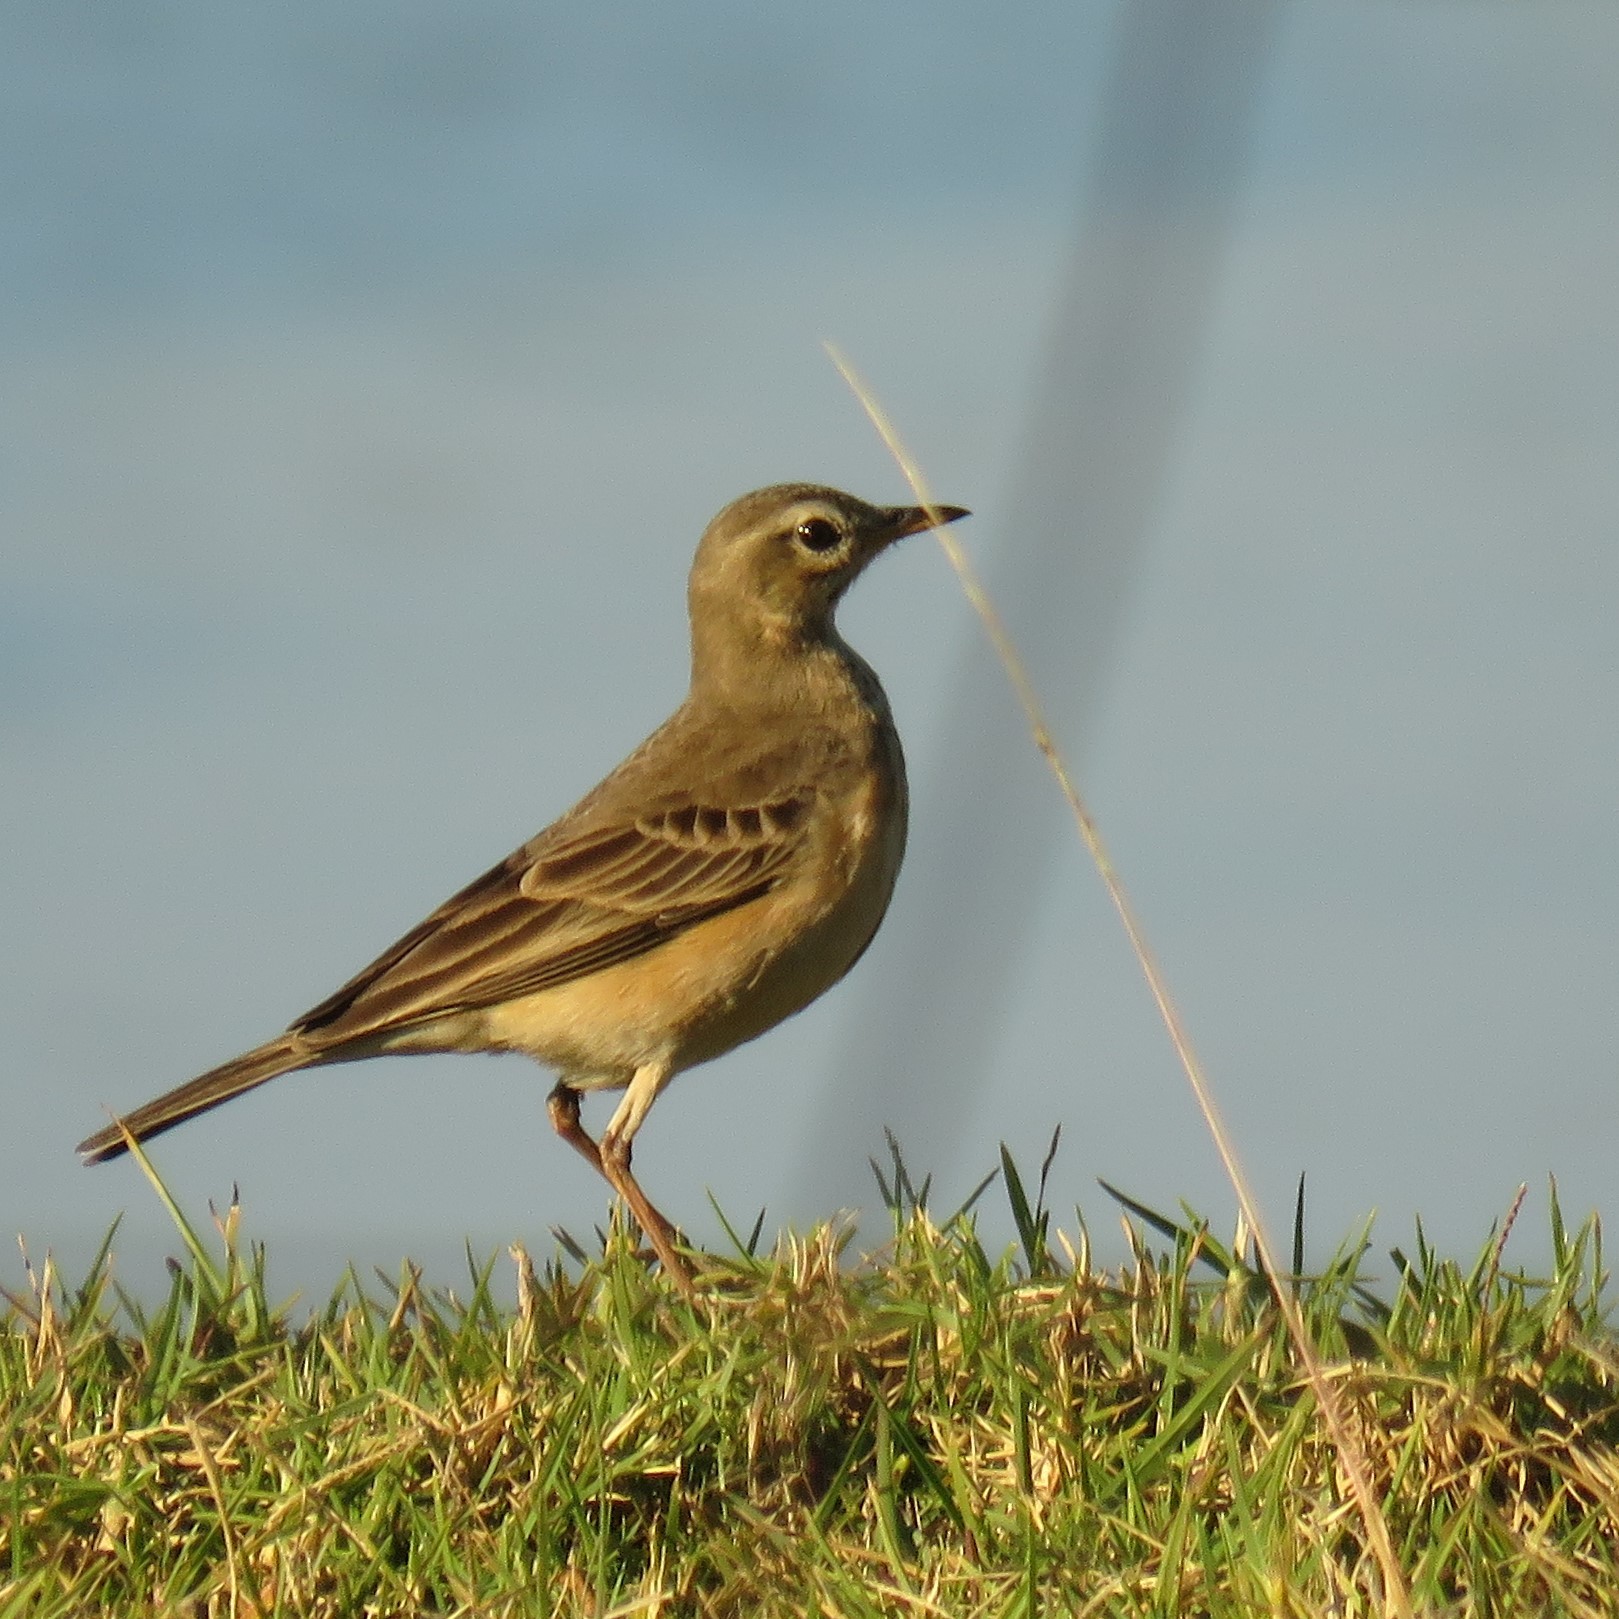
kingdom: Animalia
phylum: Chordata
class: Aves
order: Passeriformes
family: Motacillidae
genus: Anthus
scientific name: Anthus leucophrys
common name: Plain-backed pipit
